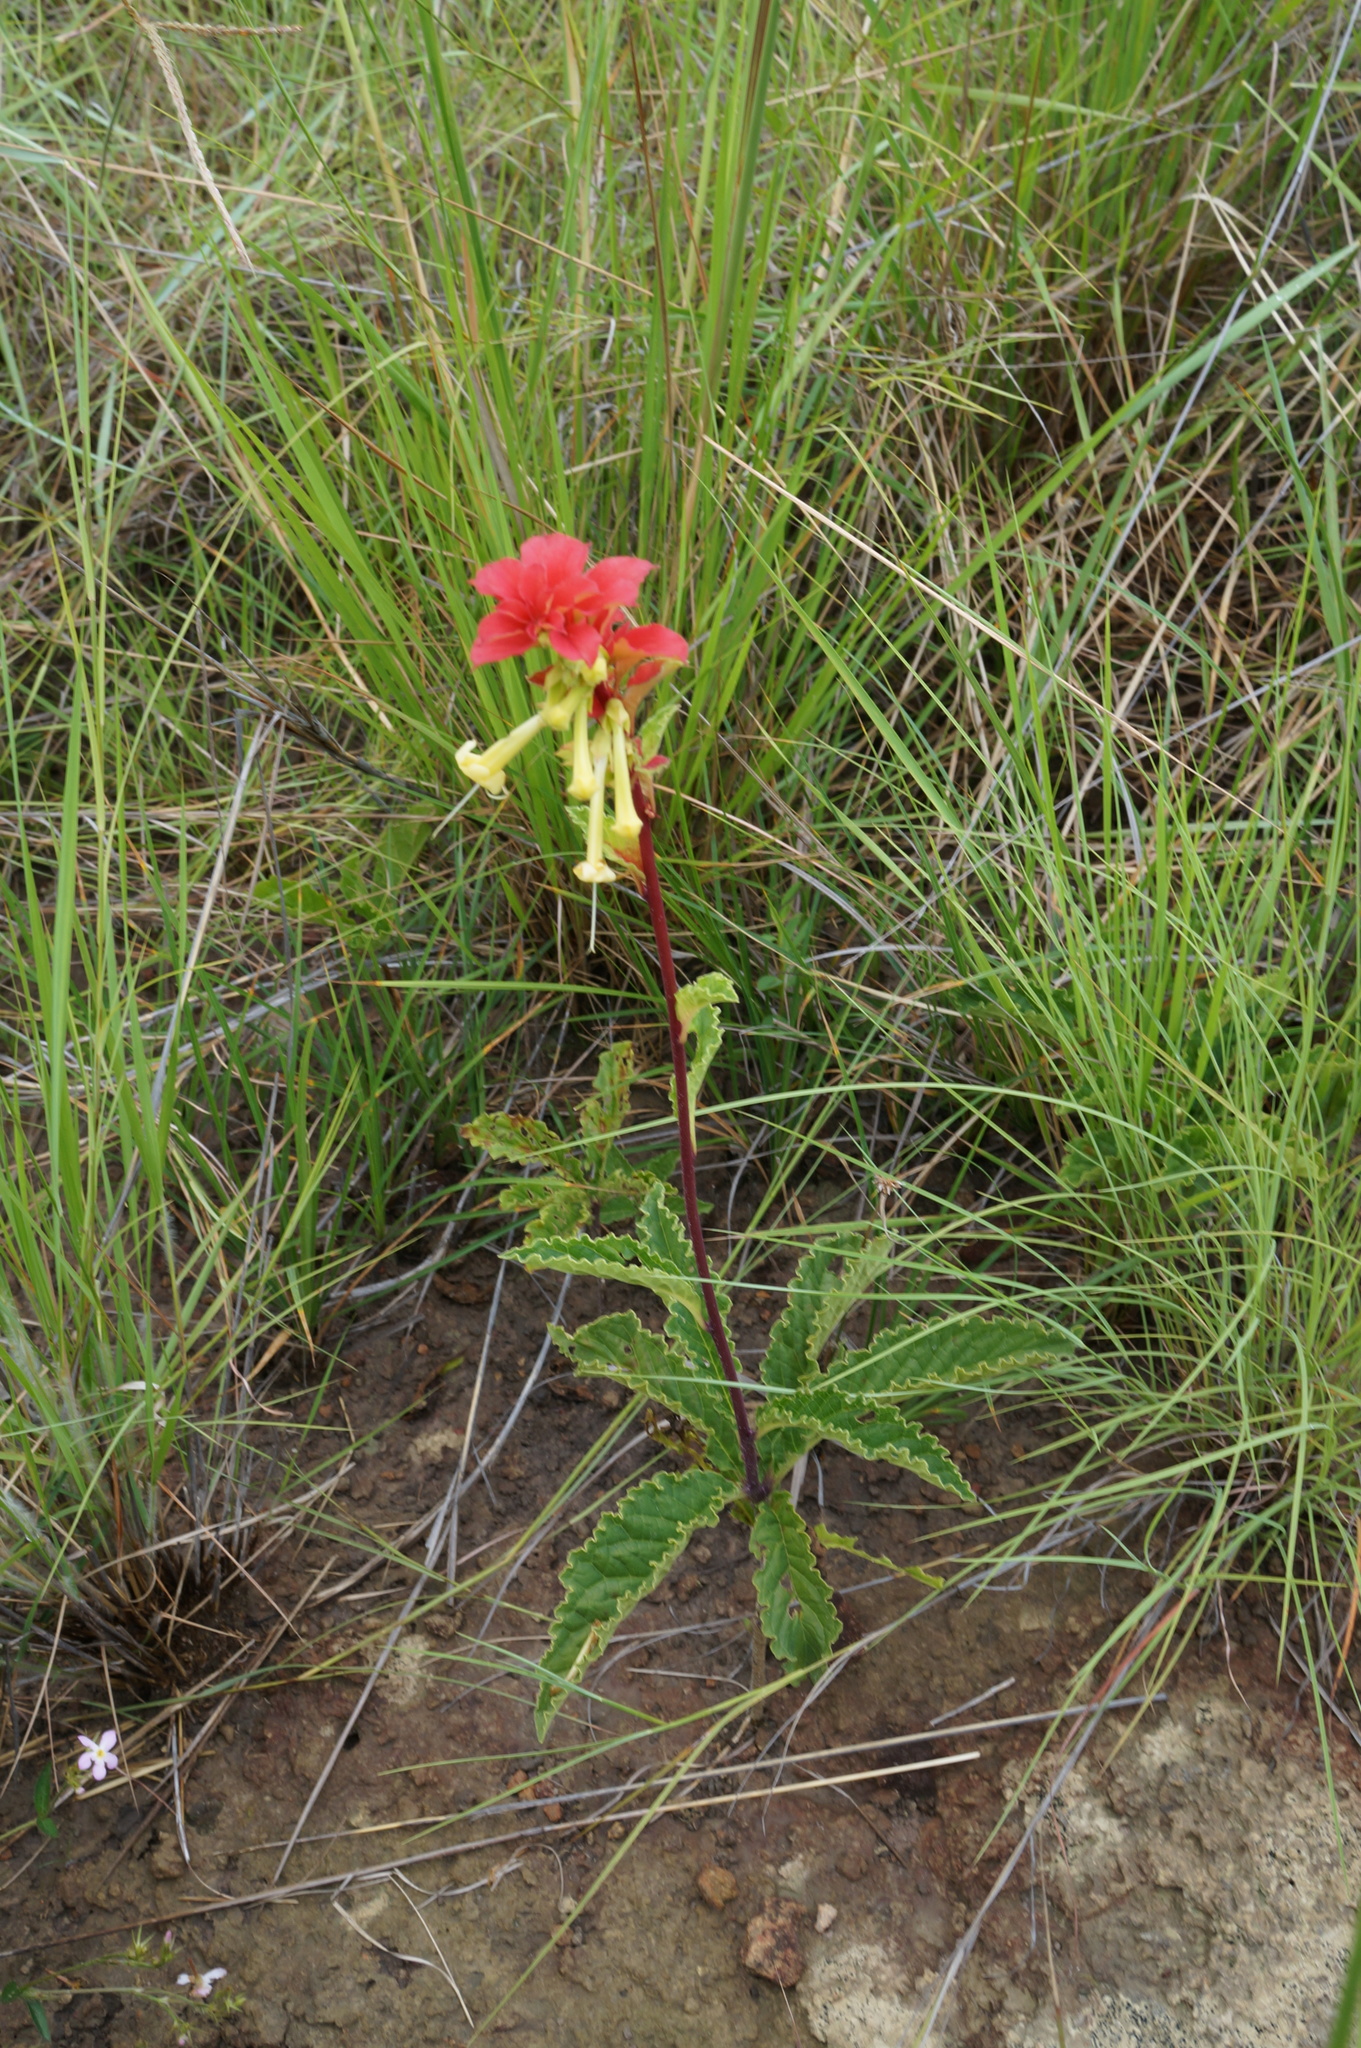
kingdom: Plantae
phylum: Tracheophyta
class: Magnoliopsida
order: Lamiales
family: Lamiaceae
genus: Amasonia
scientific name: Amasonia campestris
